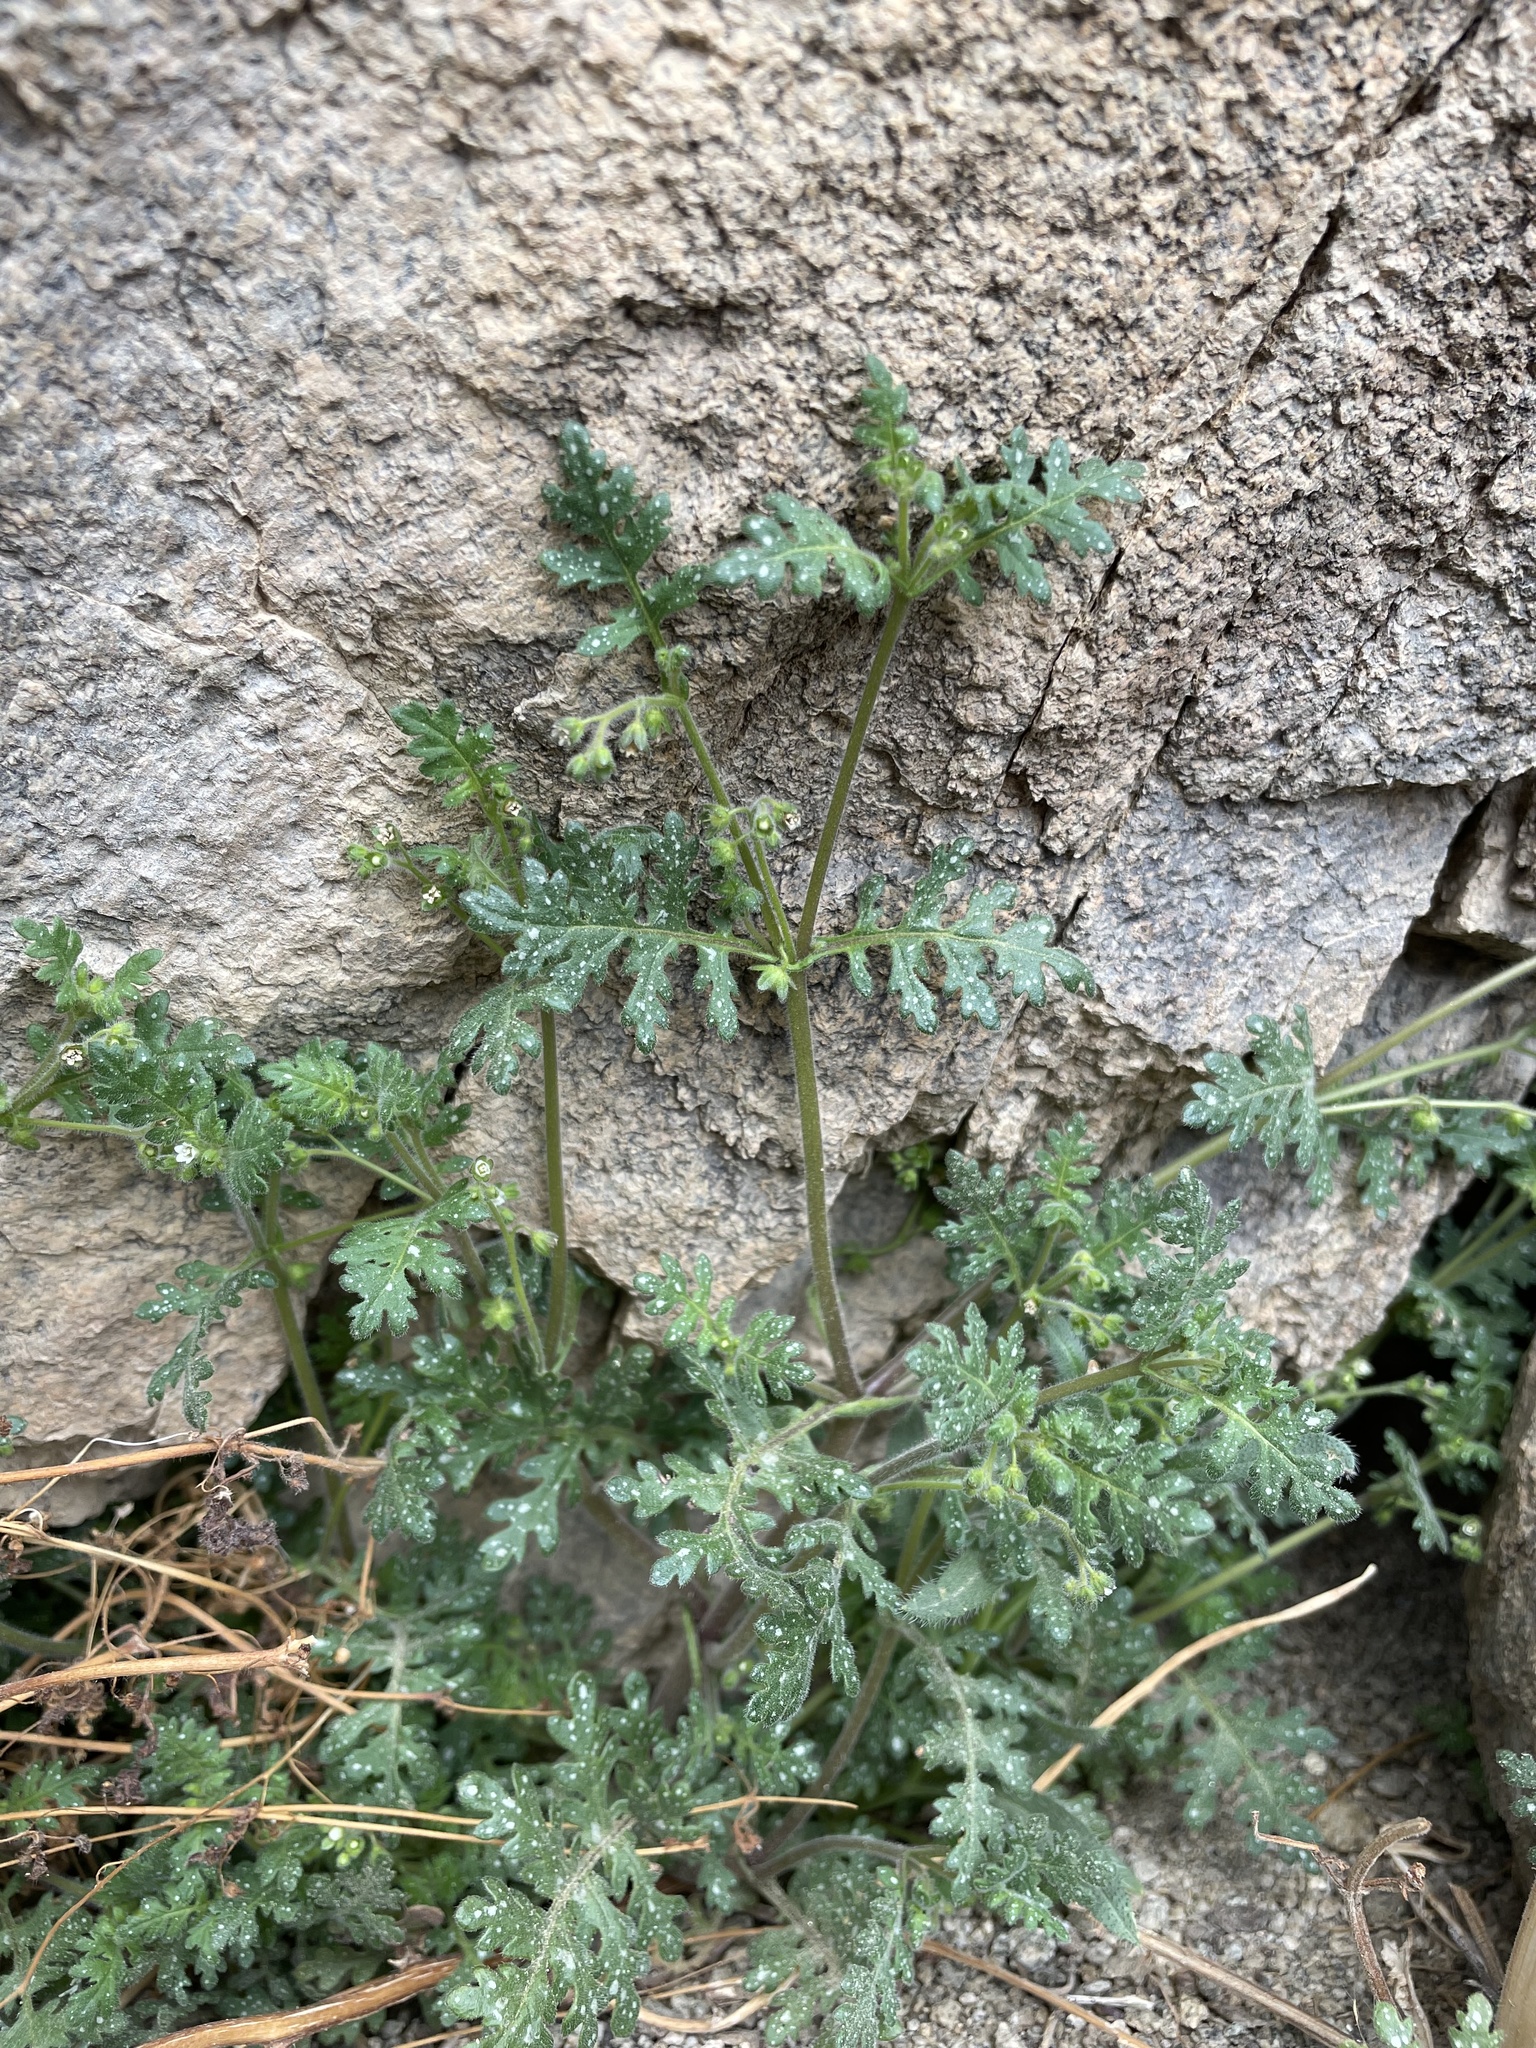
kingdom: Plantae
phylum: Tracheophyta
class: Magnoliopsida
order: Boraginales
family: Hydrophyllaceae
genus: Eucrypta
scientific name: Eucrypta chrysanthemifolia
